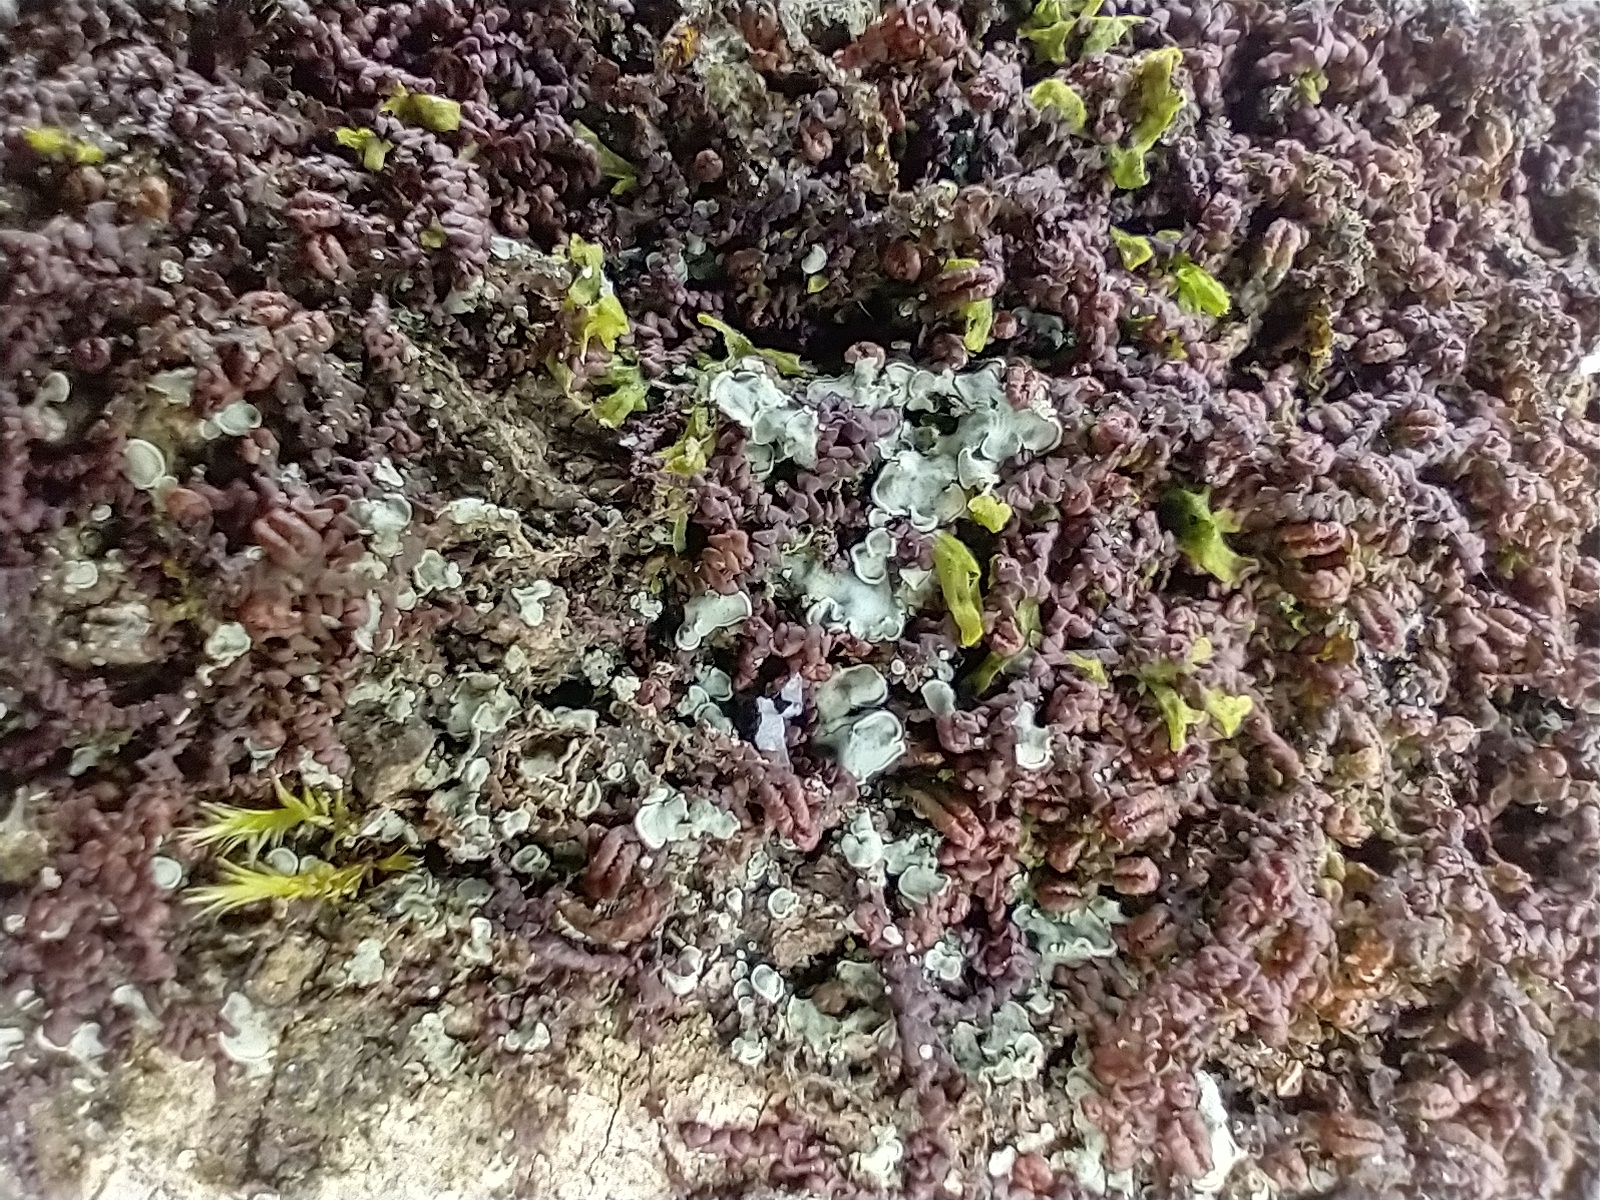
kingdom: Fungi
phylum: Ascomycota
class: Eurotiomycetes
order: Verrucariales
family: Verrucariaceae
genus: Normandina
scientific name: Normandina pulchella
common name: Elf ears lichen
